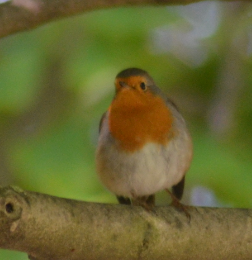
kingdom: Animalia
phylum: Chordata
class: Aves
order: Passeriformes
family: Muscicapidae
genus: Erithacus
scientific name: Erithacus rubecula
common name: European robin
